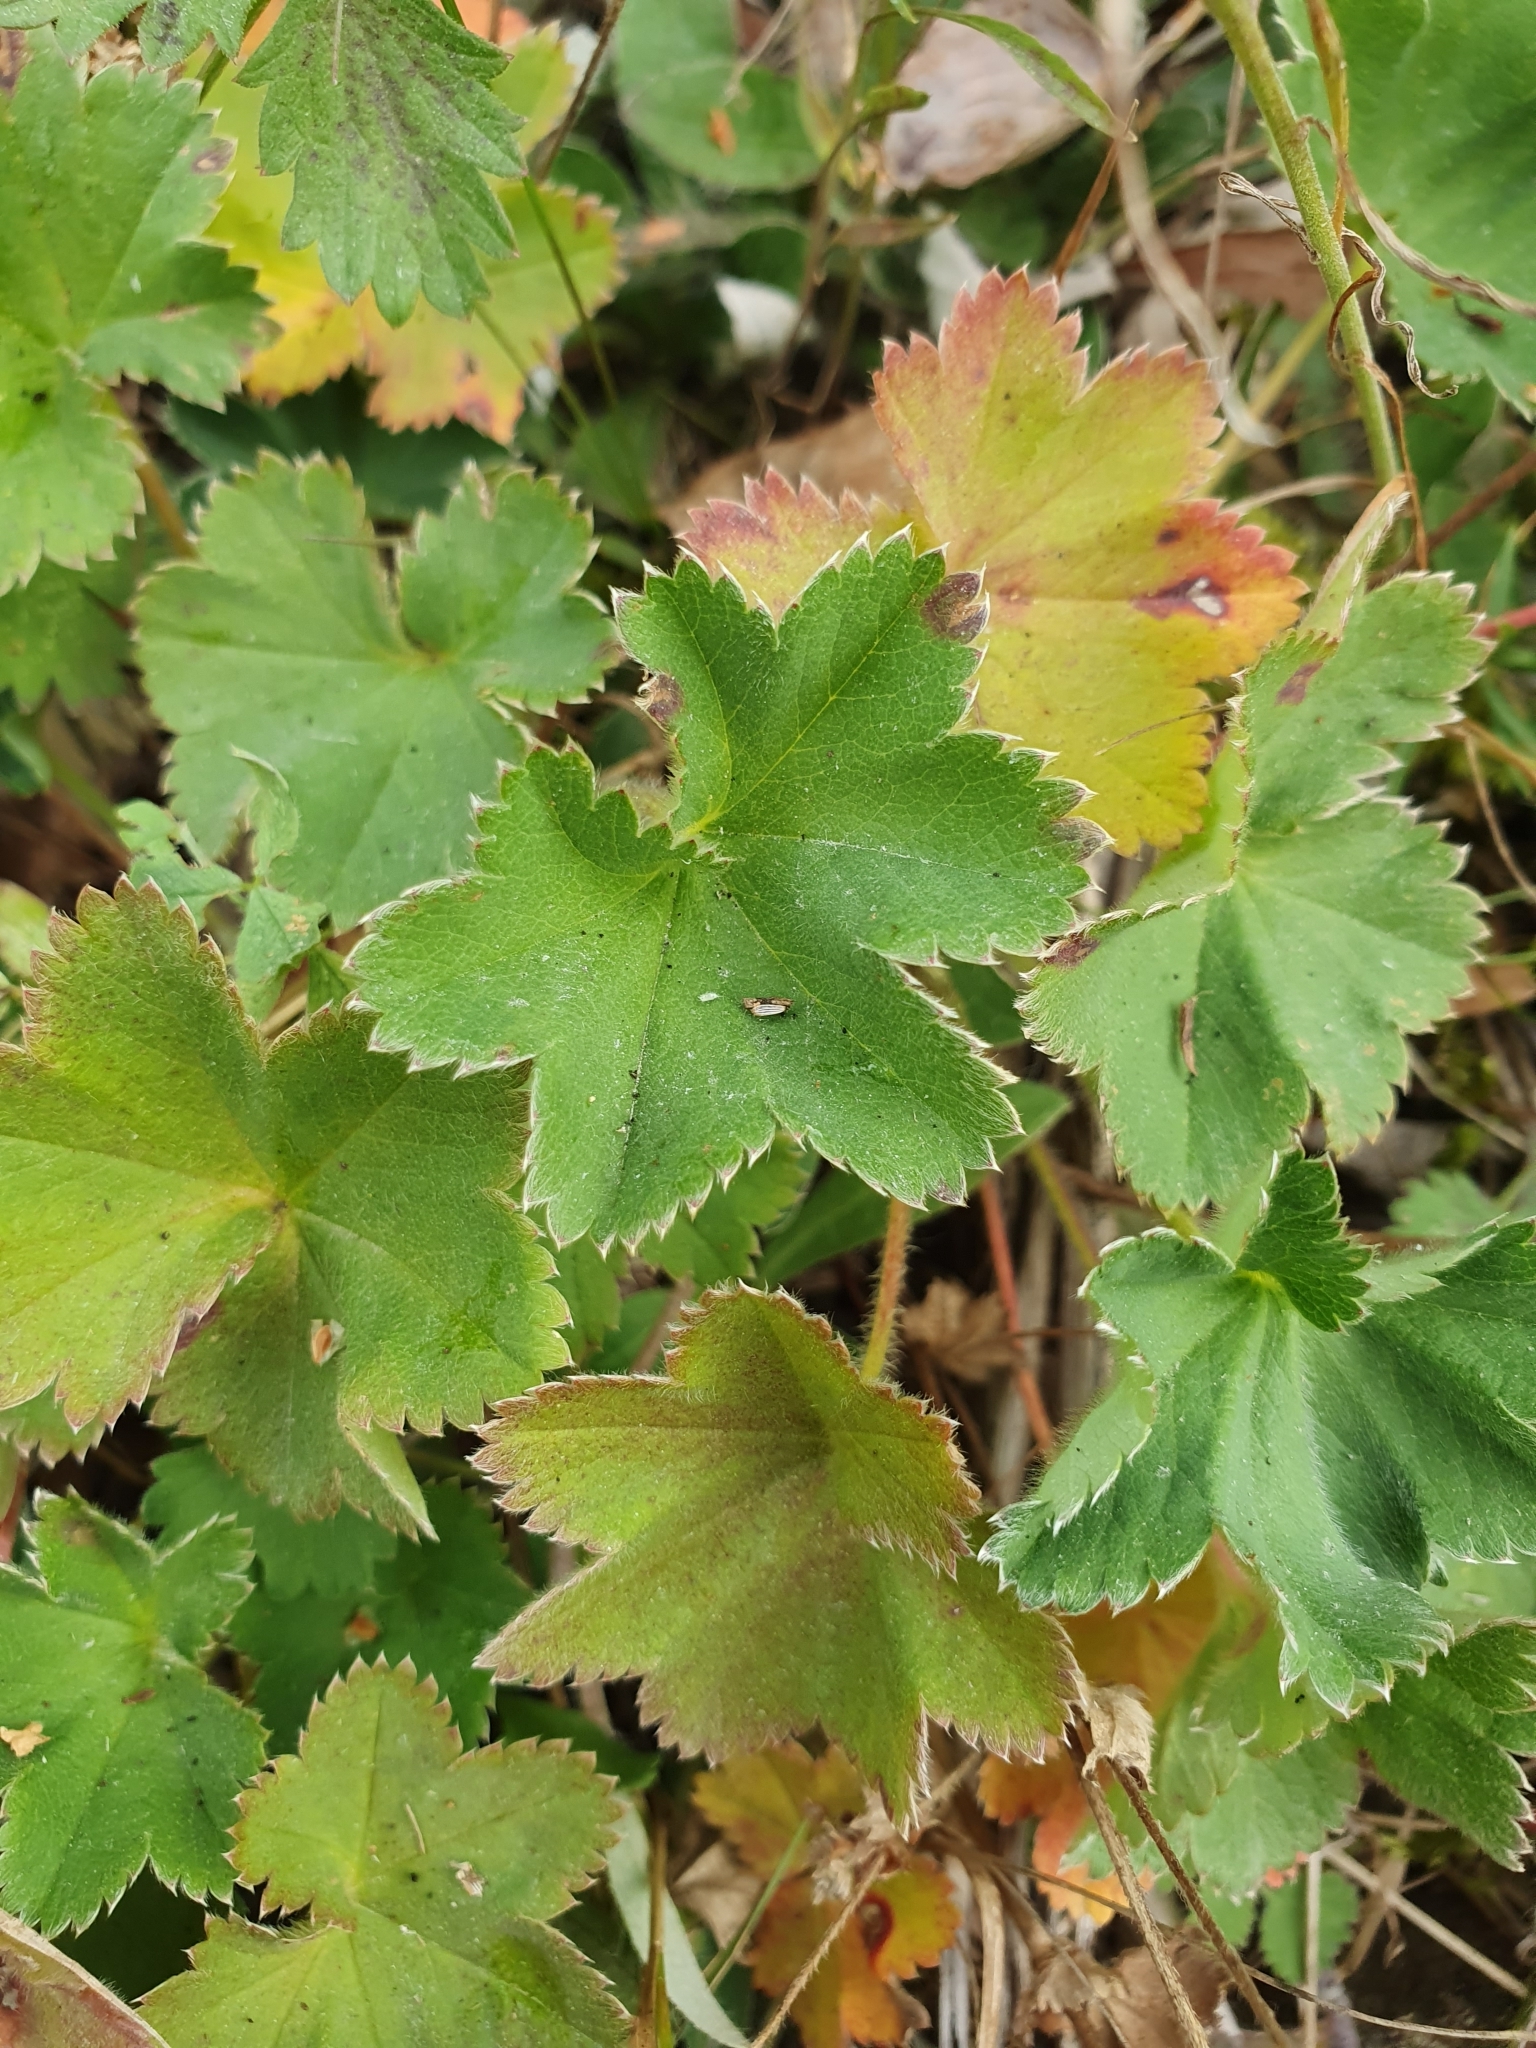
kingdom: Plantae
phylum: Tracheophyta
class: Magnoliopsida
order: Rosales
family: Rosaceae
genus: Alchemilla
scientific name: Alchemilla glaucescens
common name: Silky lady's mantle
